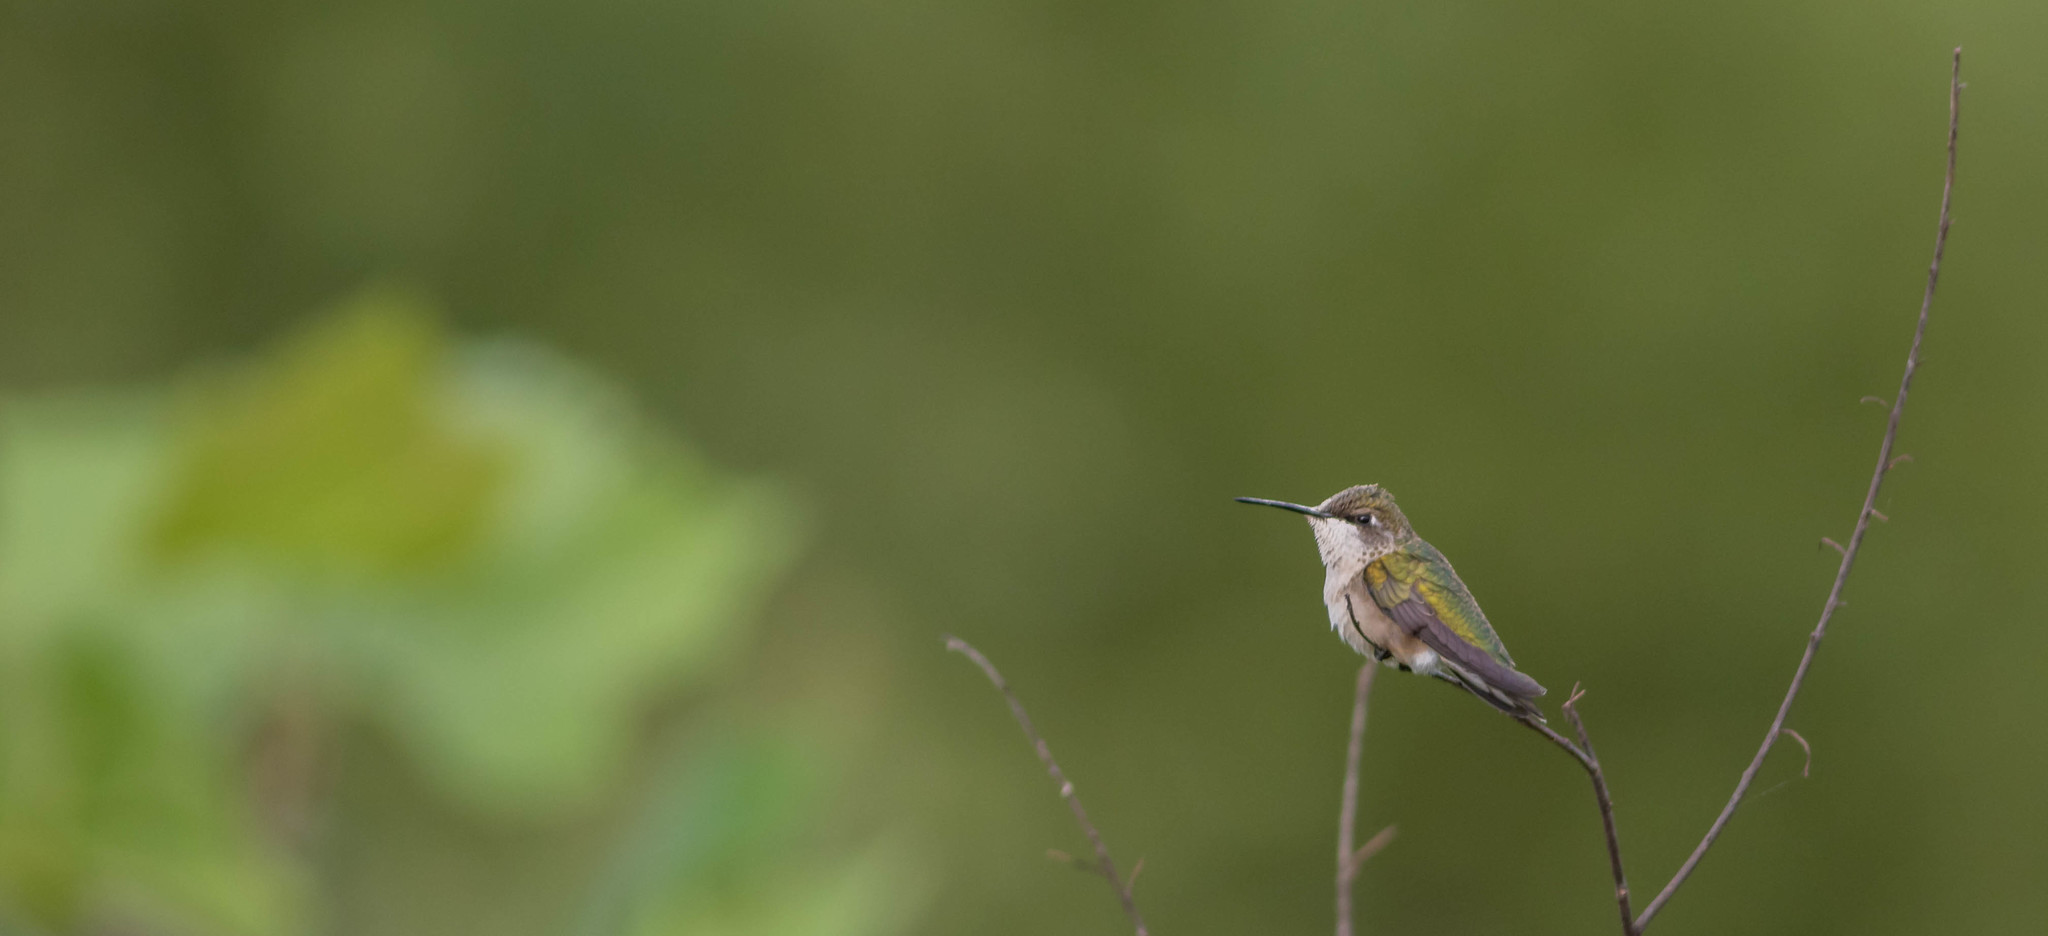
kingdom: Animalia
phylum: Chordata
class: Aves
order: Apodiformes
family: Trochilidae
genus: Archilochus
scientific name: Archilochus colubris
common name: Ruby-throated hummingbird
